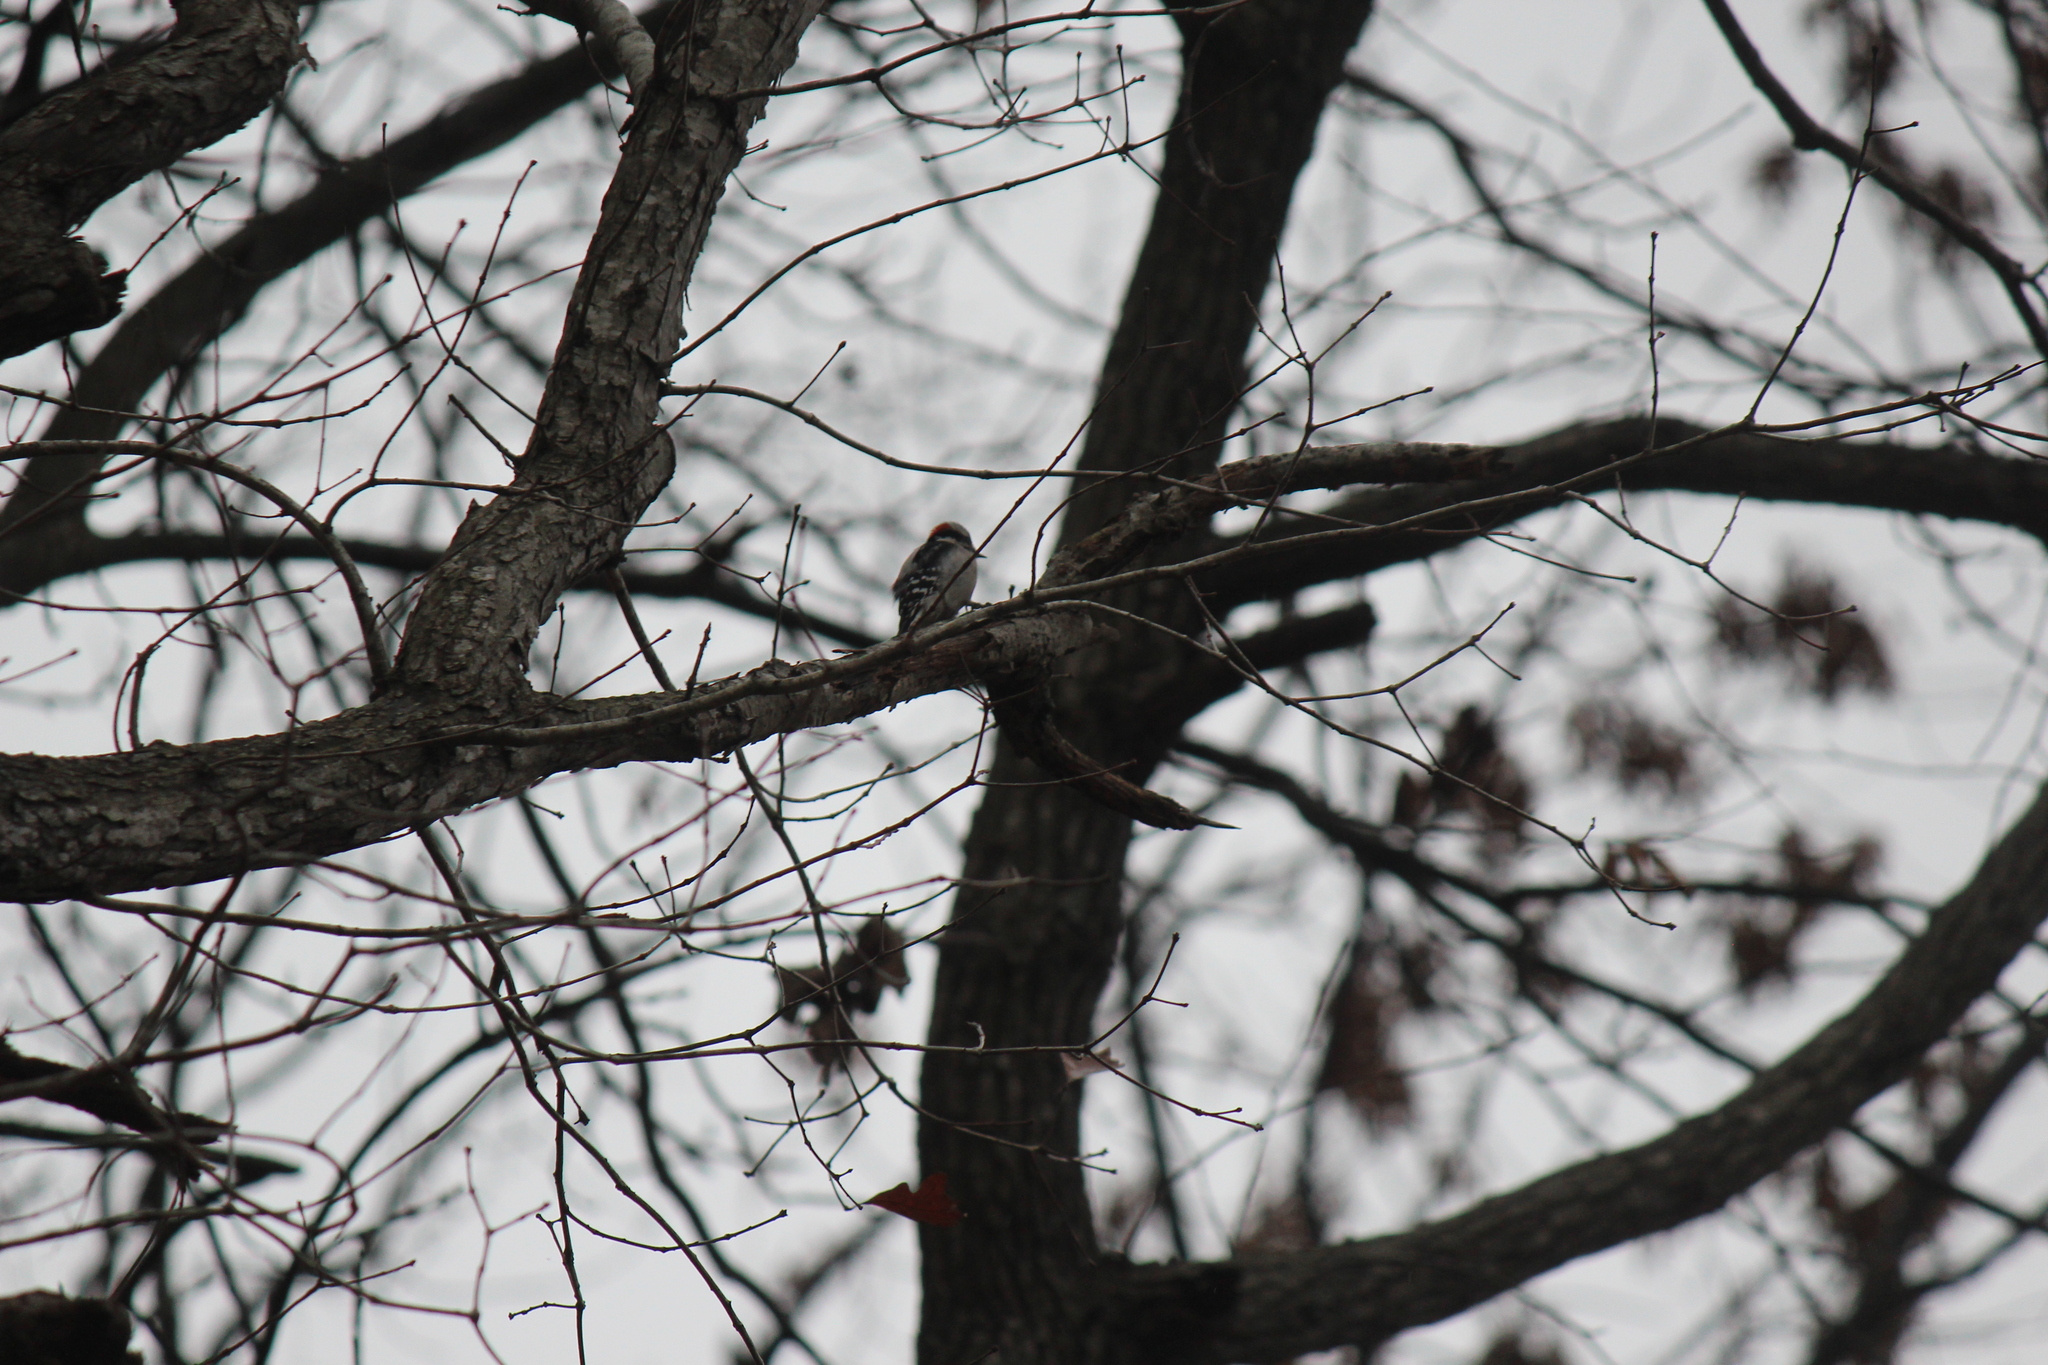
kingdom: Animalia
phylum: Chordata
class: Aves
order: Piciformes
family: Picidae
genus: Dryobates
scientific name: Dryobates pubescens
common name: Downy woodpecker
